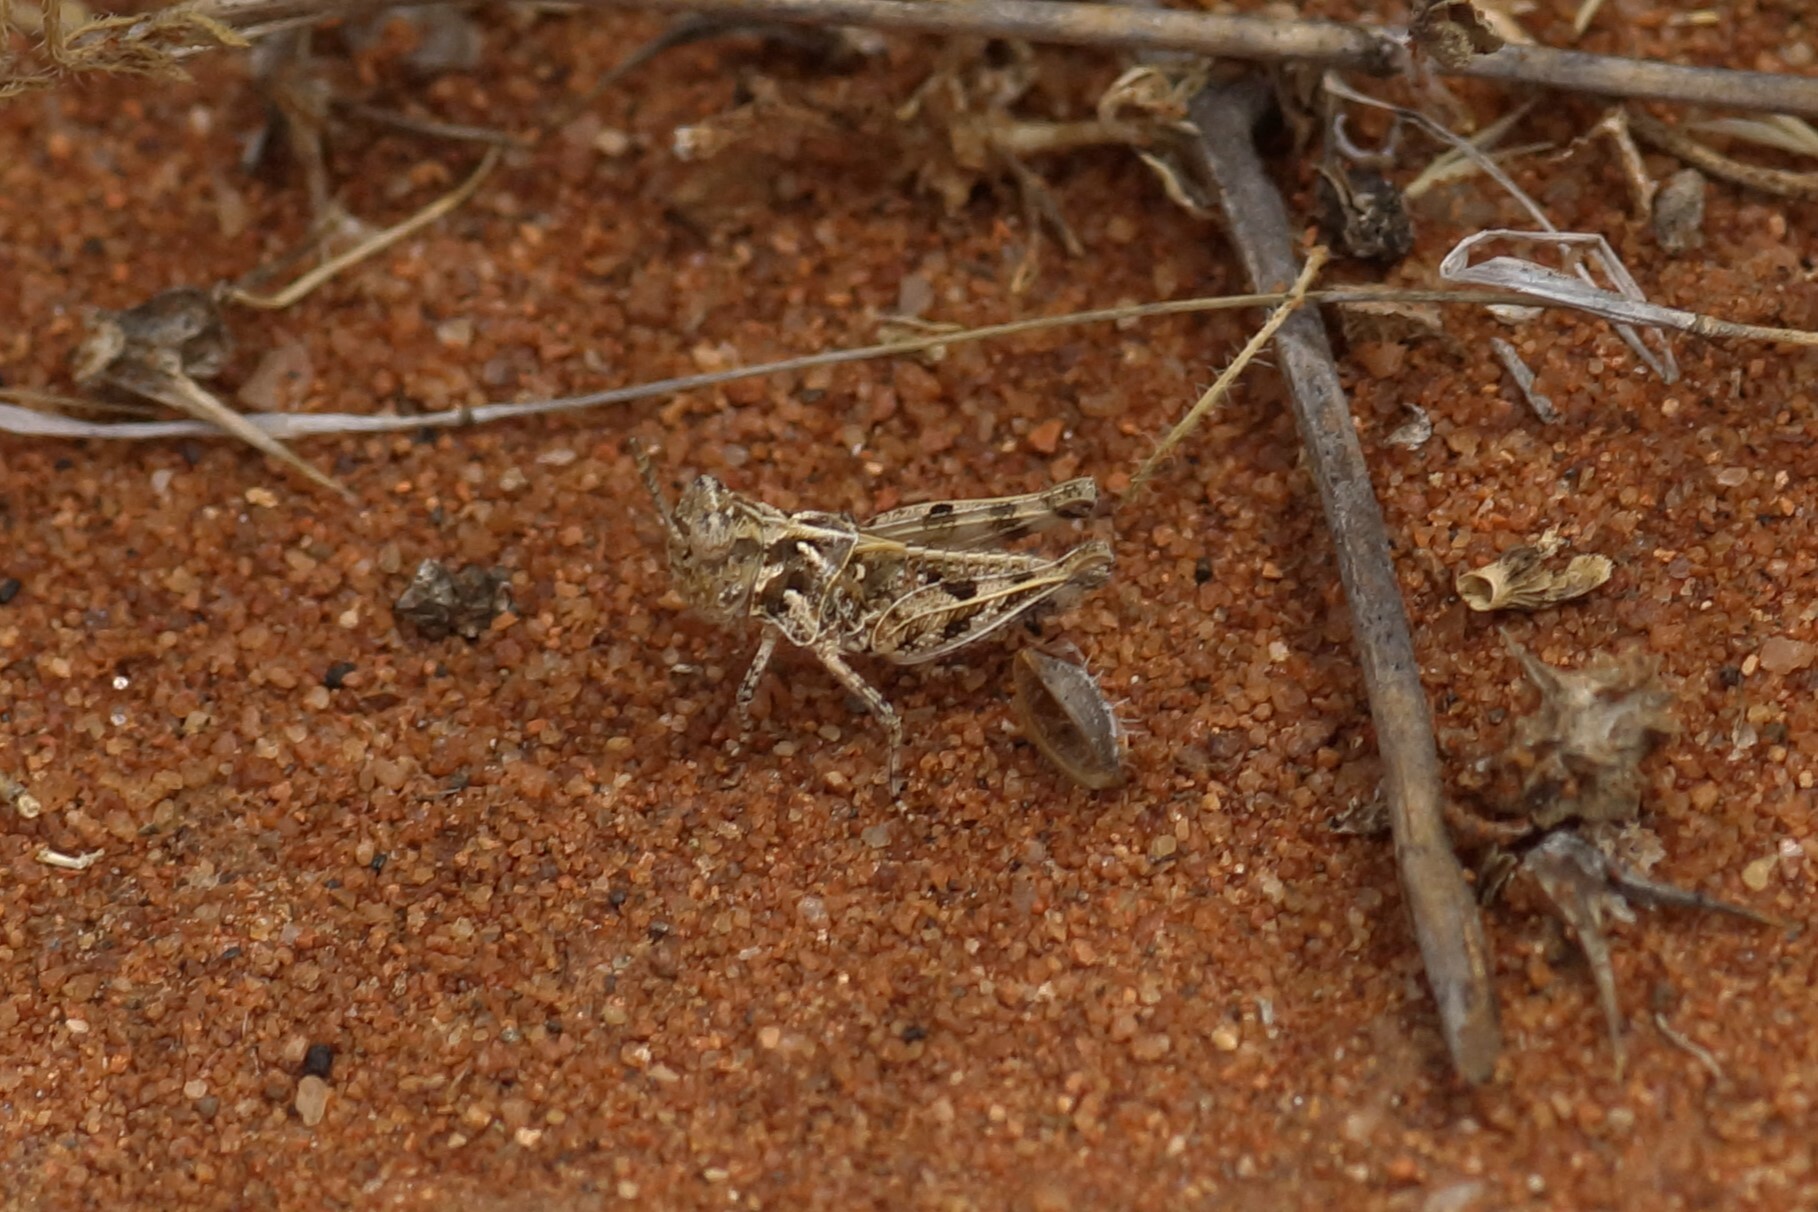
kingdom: Animalia
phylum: Arthropoda
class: Insecta
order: Orthoptera
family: Acrididae
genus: Urnisa
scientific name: Urnisa guttulosa
